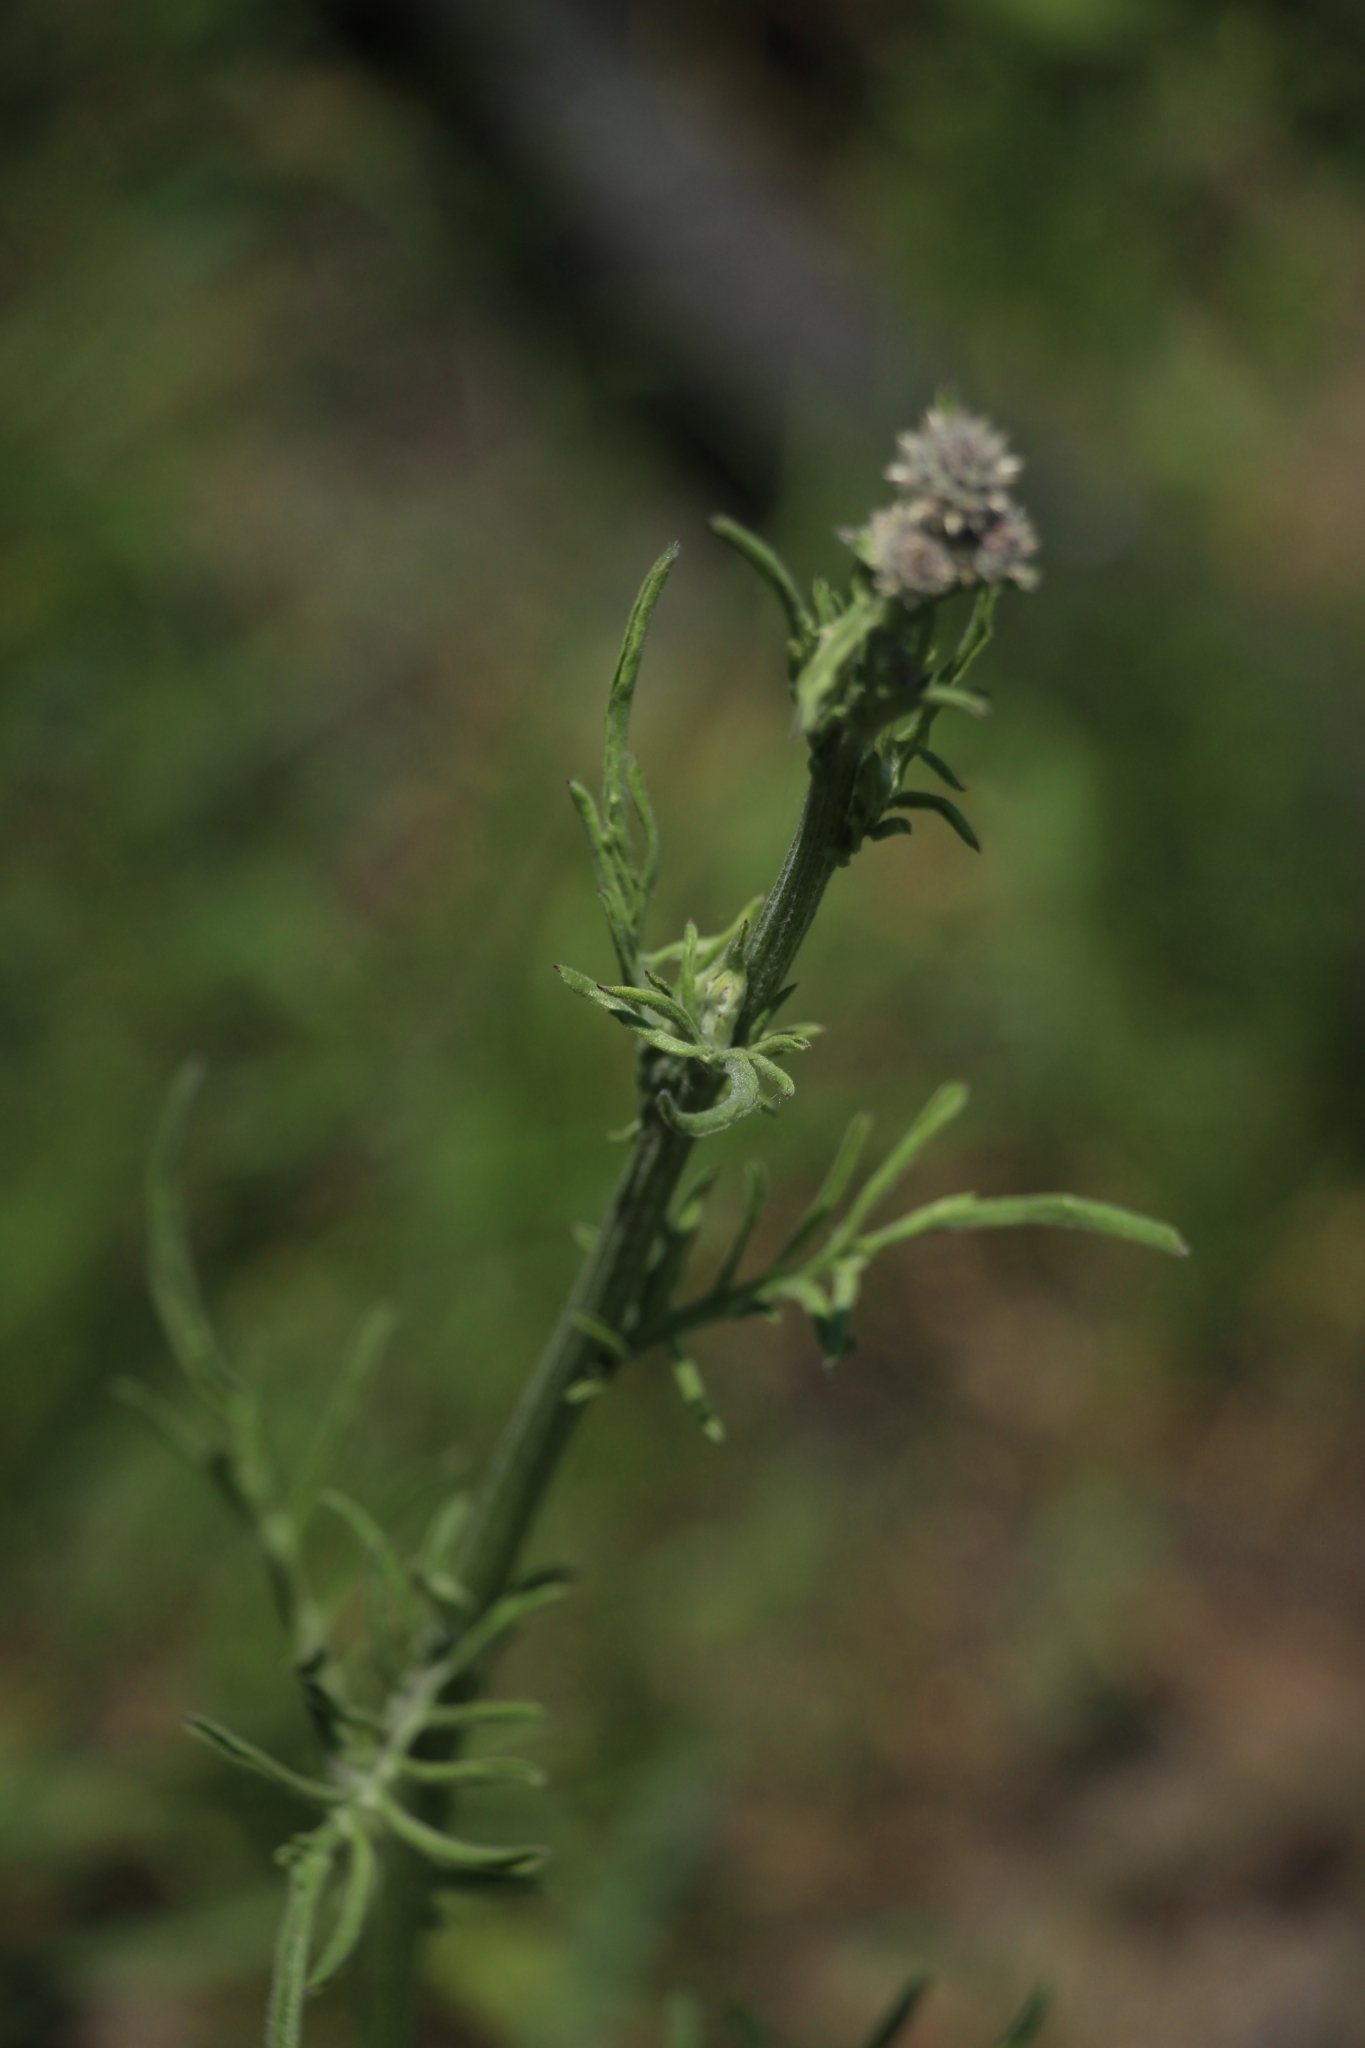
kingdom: Plantae
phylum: Tracheophyta
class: Magnoliopsida
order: Asterales
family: Asteraceae
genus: Centaurea
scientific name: Centaurea scabiosa
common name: Greater knapweed
